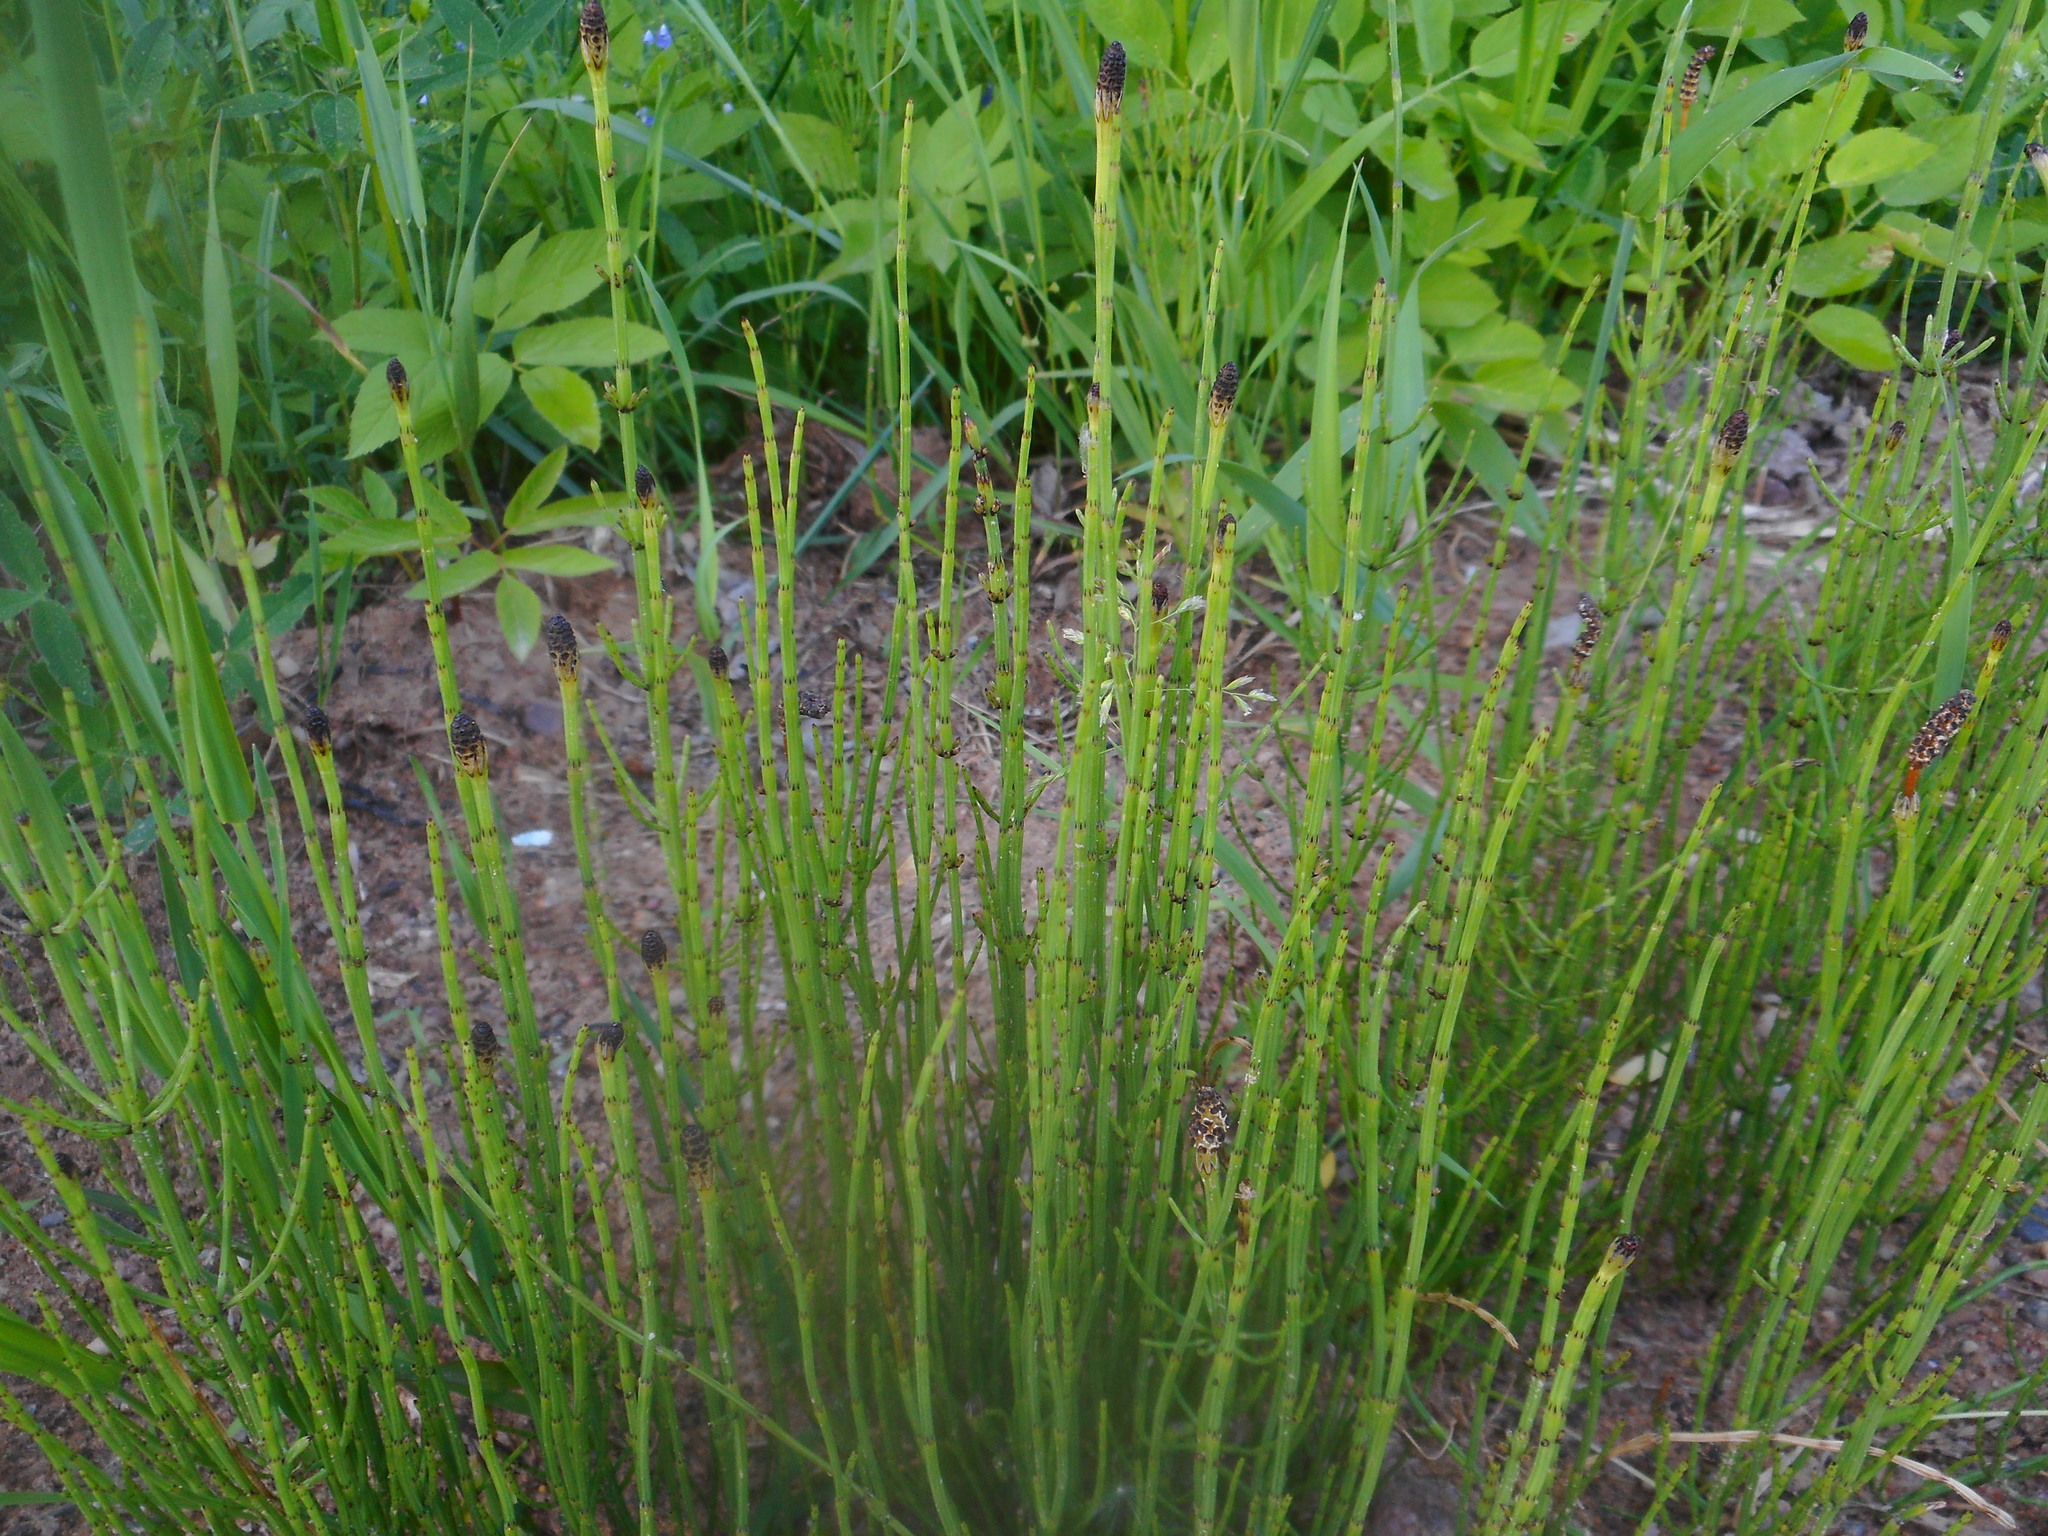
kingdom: Plantae
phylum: Tracheophyta
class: Polypodiopsida
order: Equisetales
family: Equisetaceae
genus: Equisetum
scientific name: Equisetum palustre
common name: Marsh horsetail
